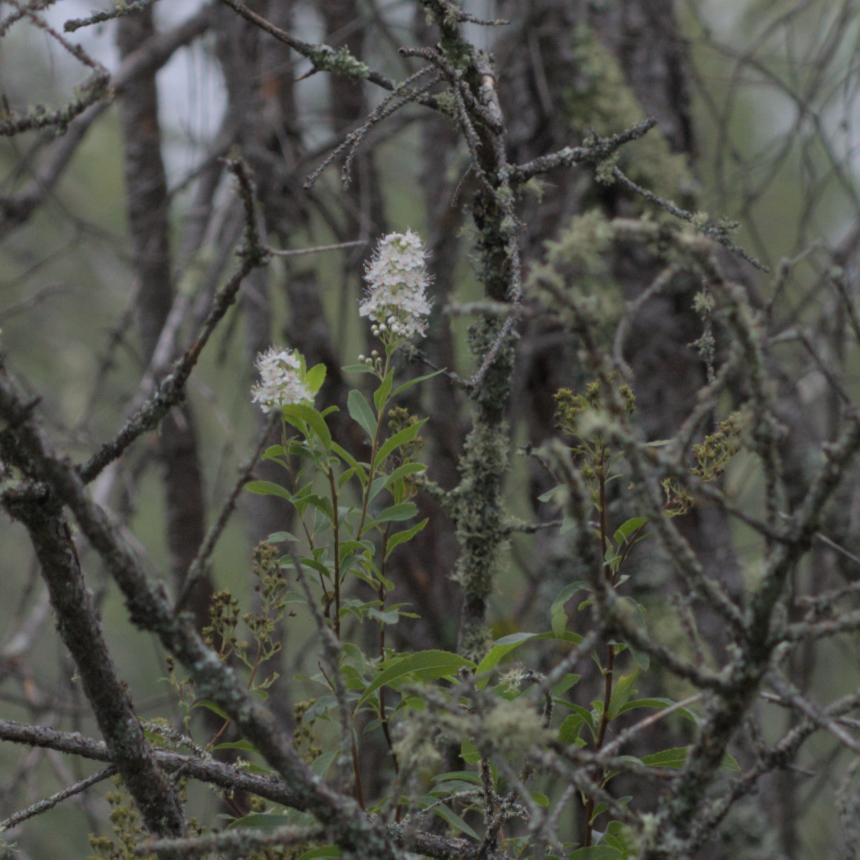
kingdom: Plantae
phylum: Tracheophyta
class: Magnoliopsida
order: Rosales
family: Rosaceae
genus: Spiraea
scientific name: Spiraea alba
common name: Pale bridewort
